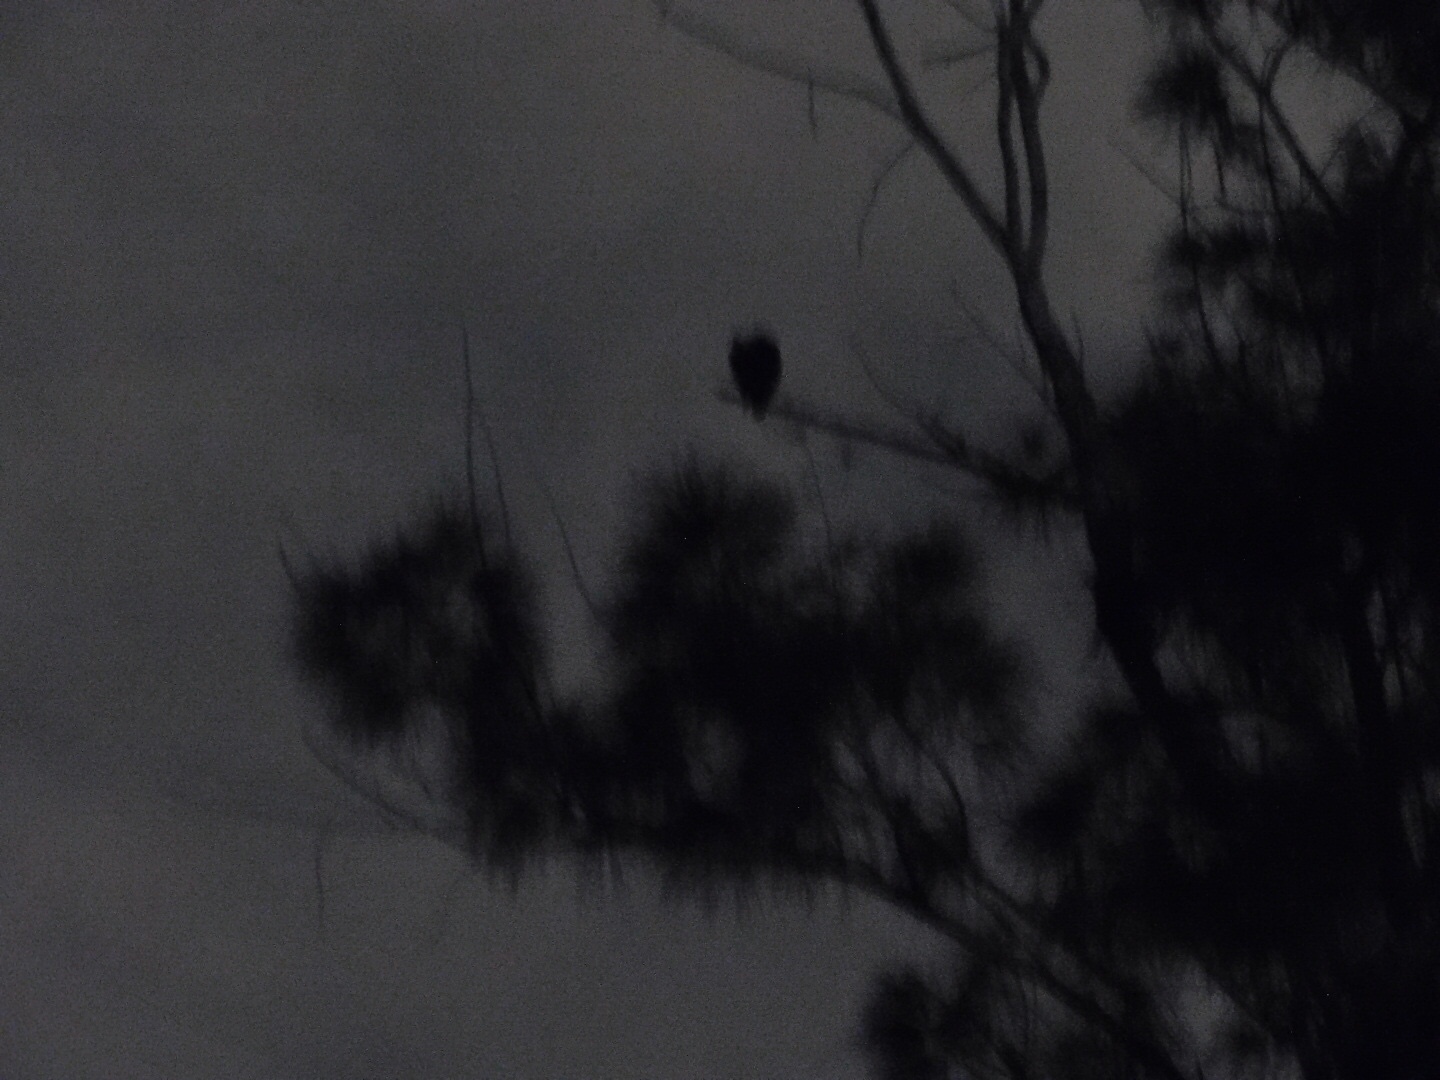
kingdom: Animalia
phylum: Chordata
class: Aves
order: Accipitriformes
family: Accipitridae
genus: Haliaeetus
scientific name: Haliaeetus leucocephalus
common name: Bald eagle
